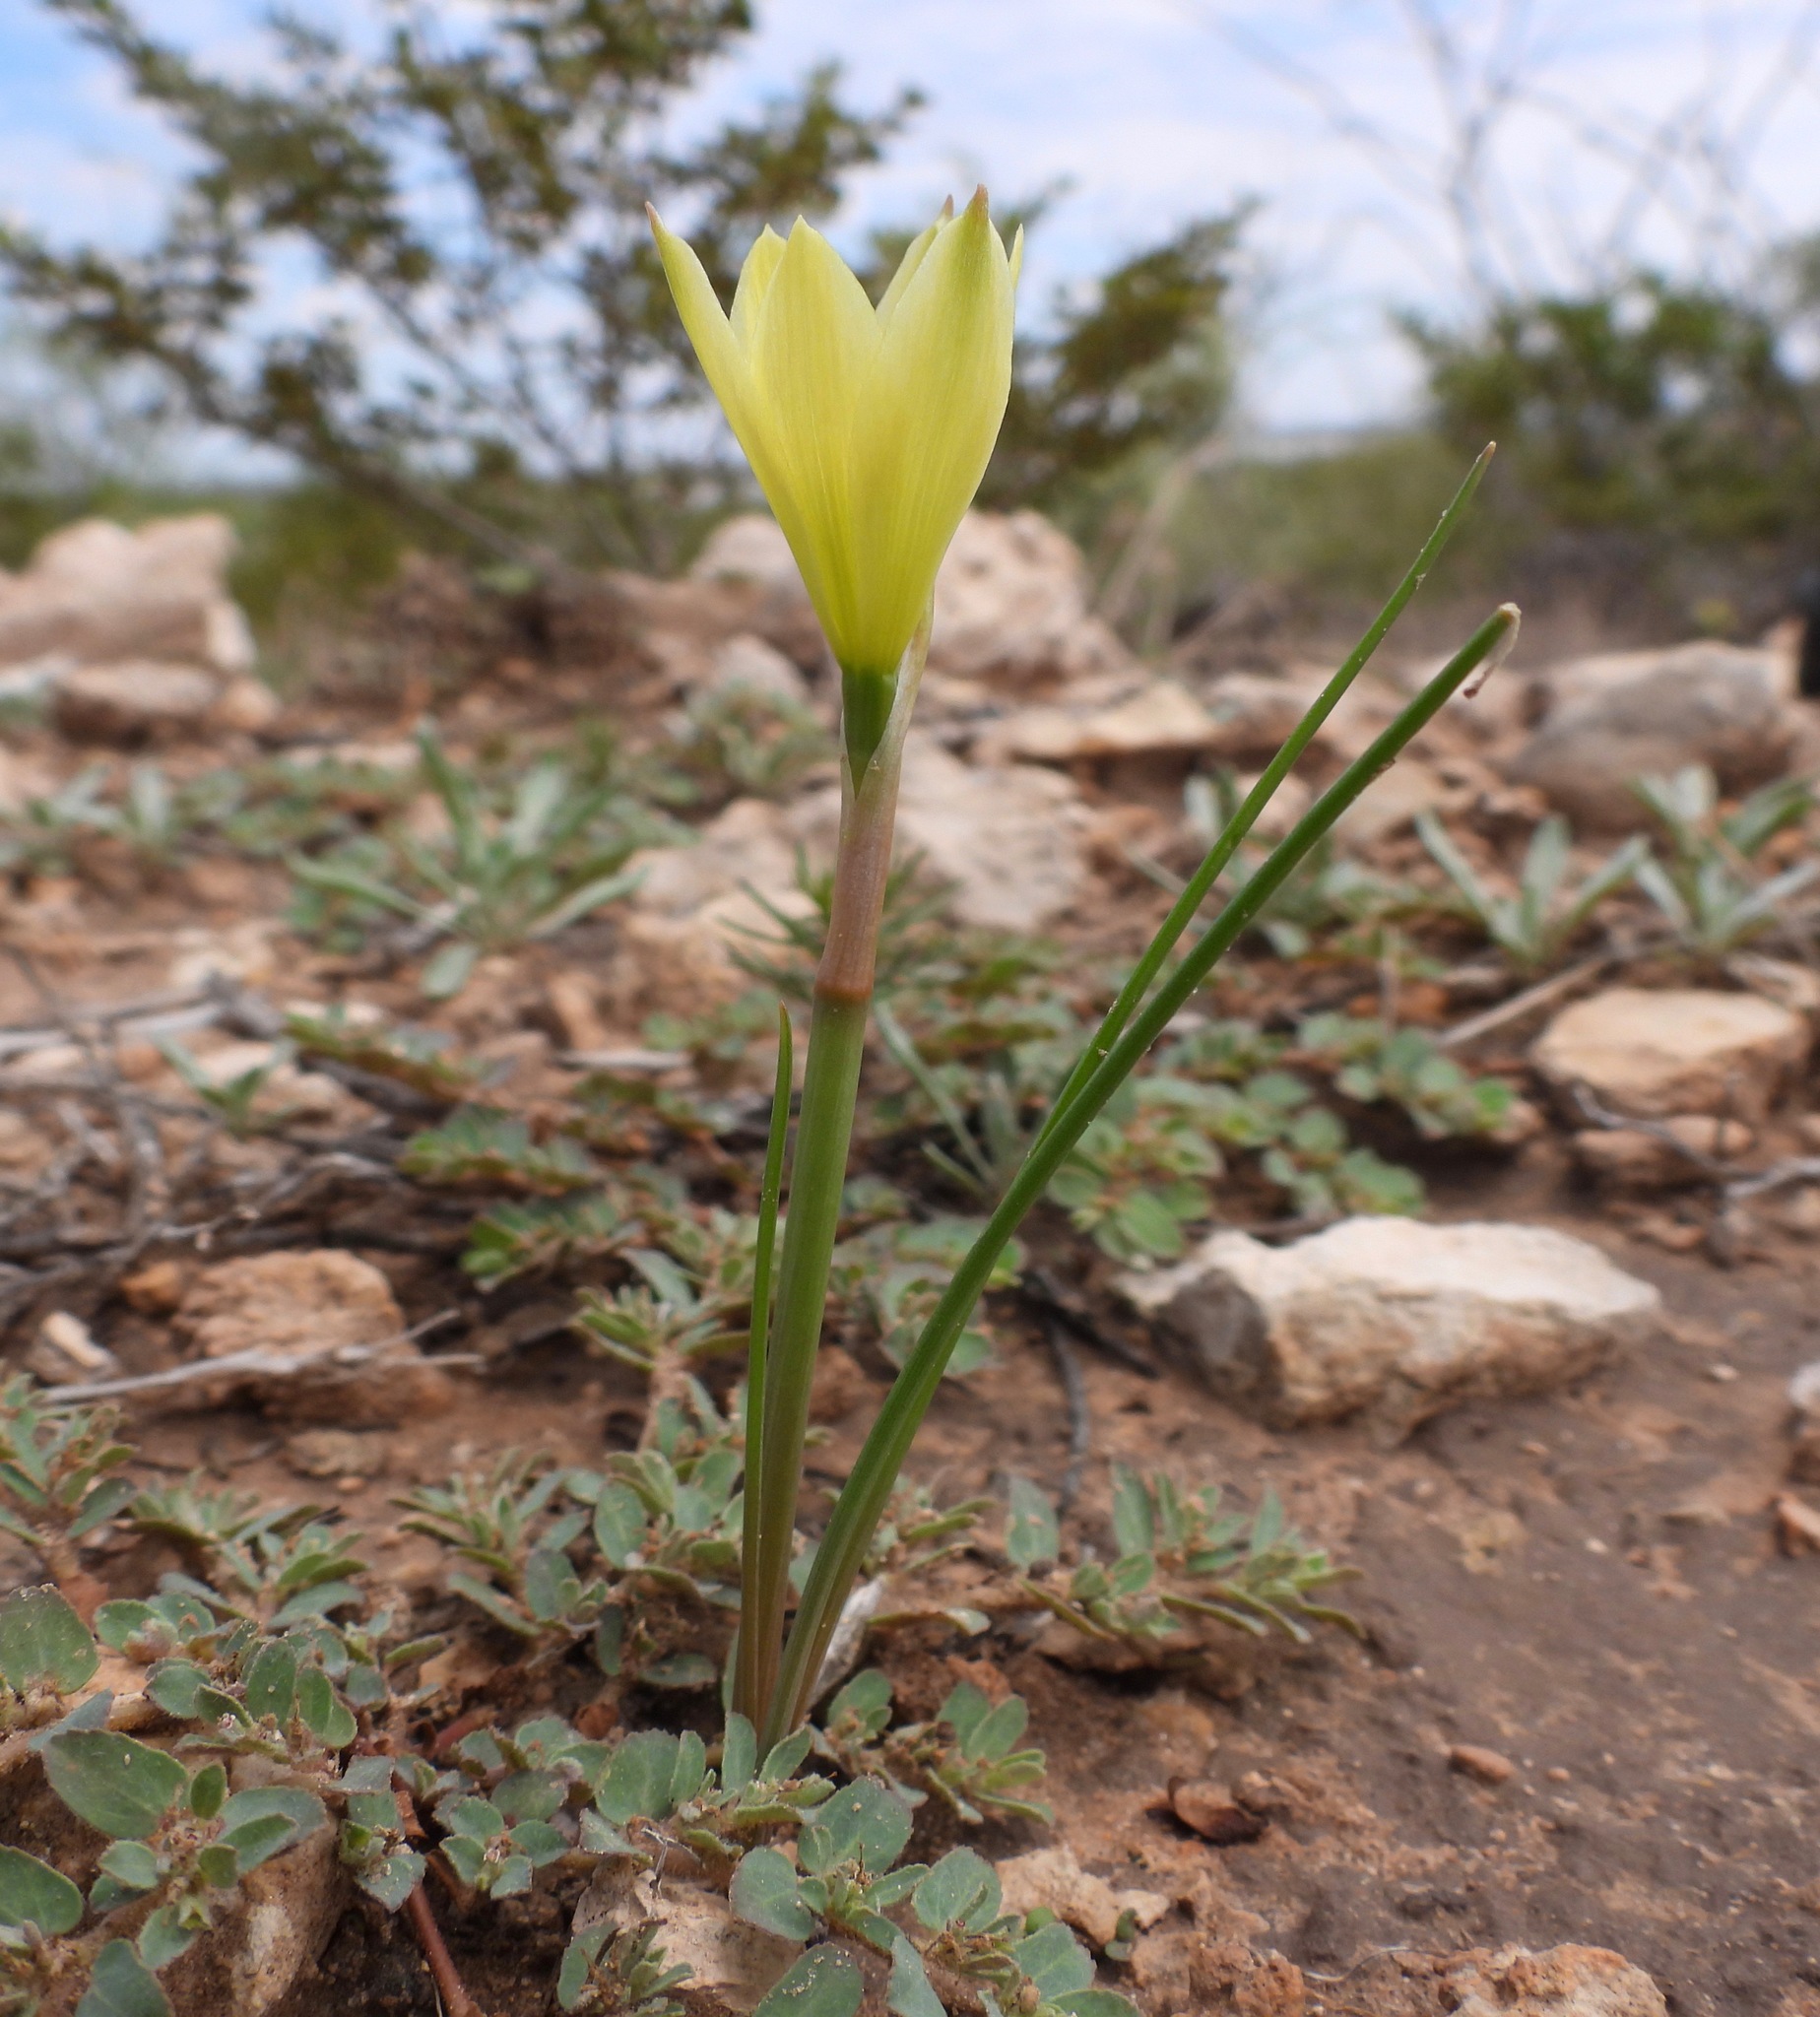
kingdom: Plantae
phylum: Tracheophyta
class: Liliopsida
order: Asparagales
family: Amaryllidaceae
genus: Zephyranthes
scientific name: Zephyranthes longifolia
